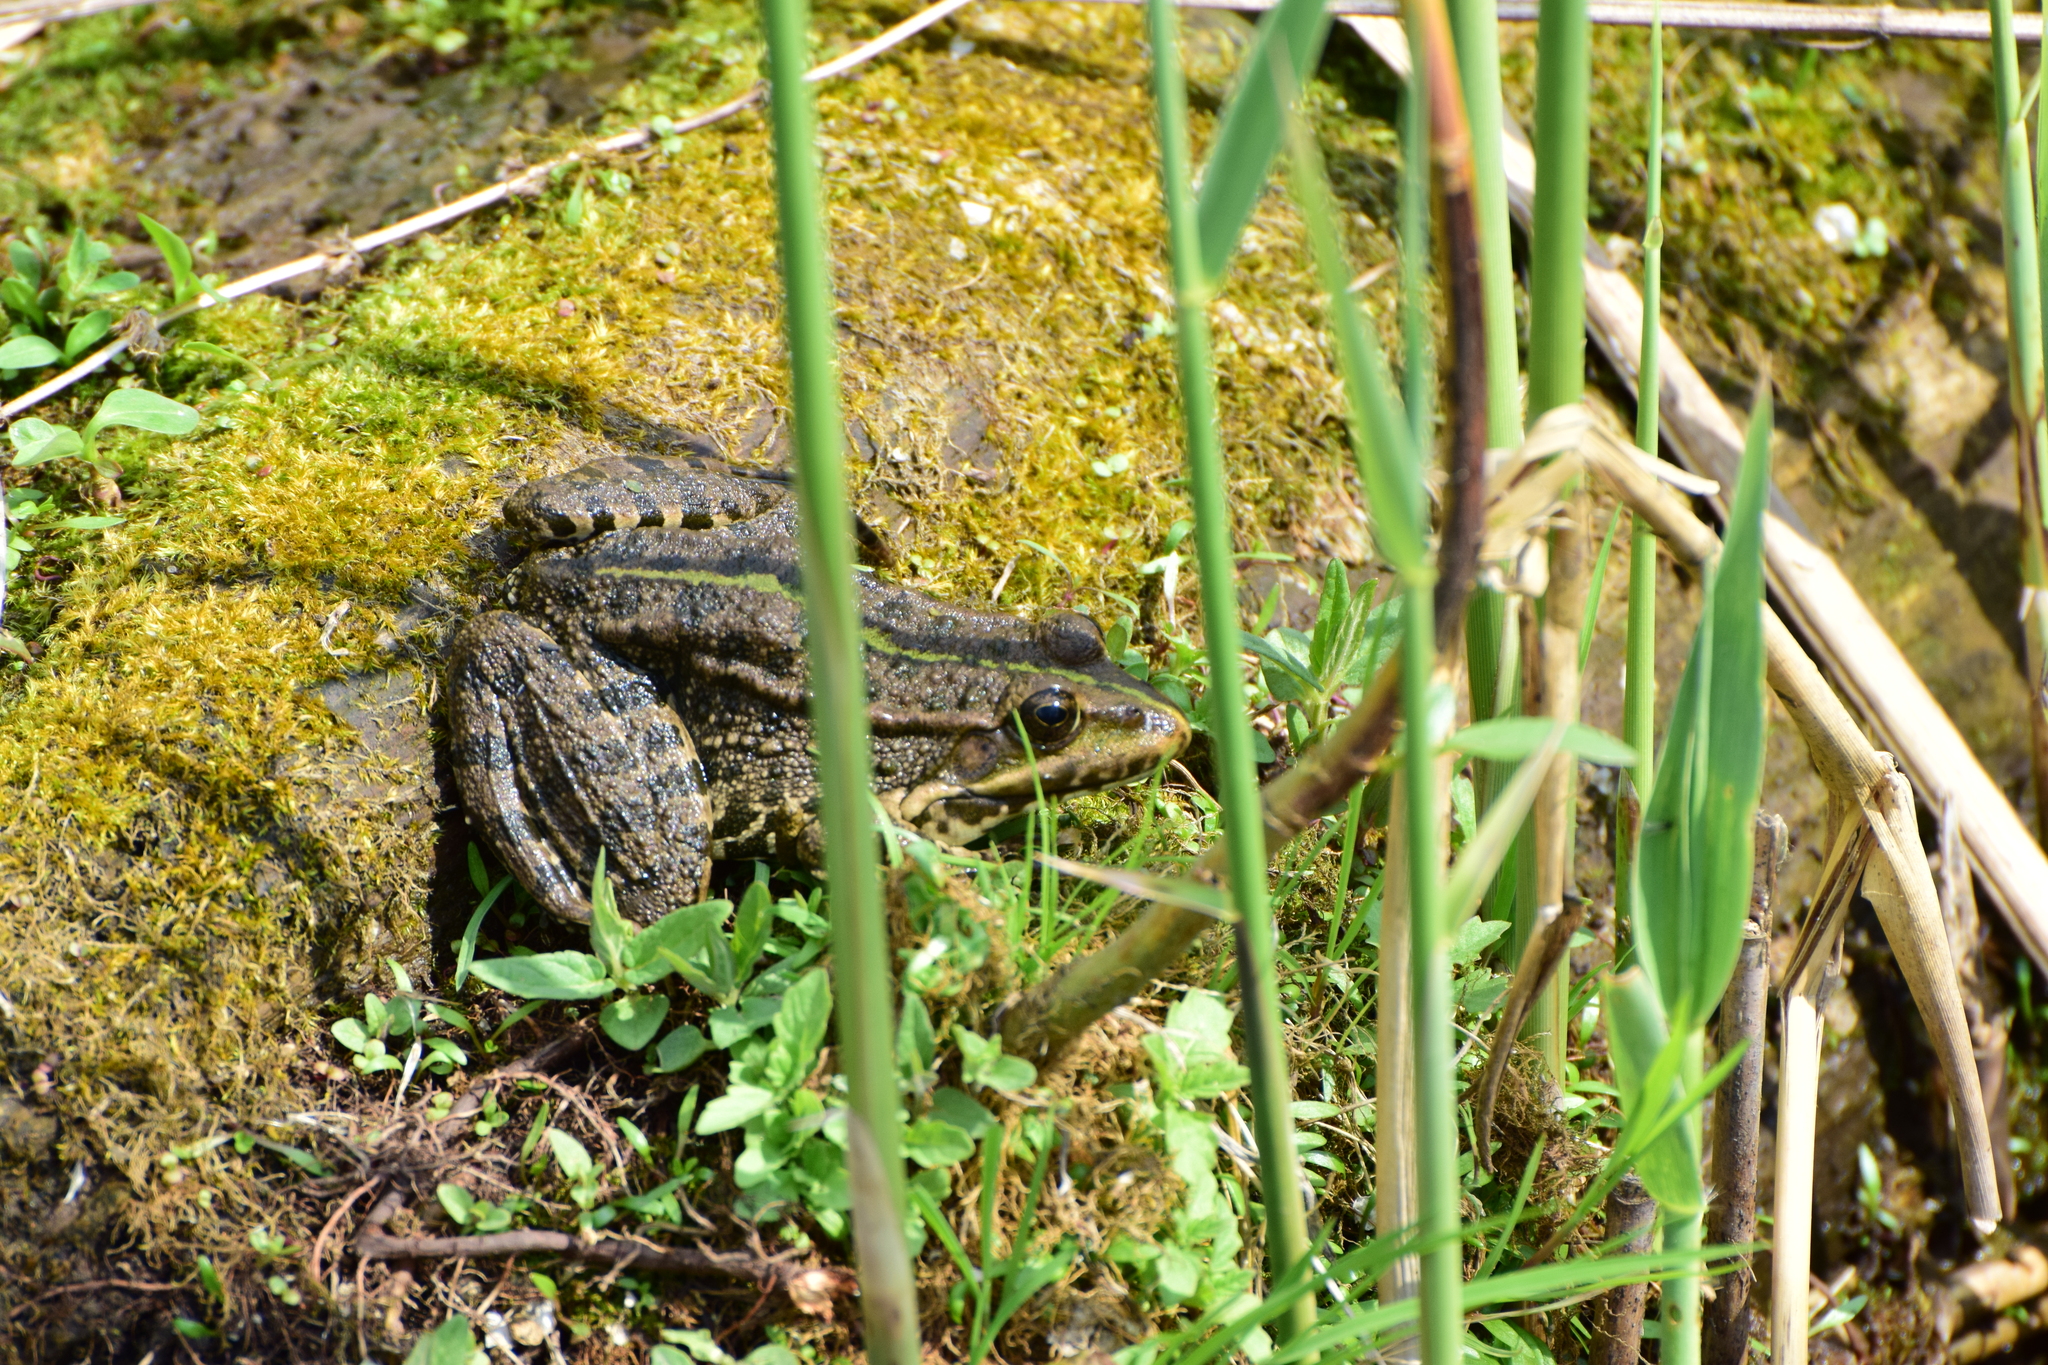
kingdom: Animalia
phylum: Chordata
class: Amphibia
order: Anura
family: Ranidae
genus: Pelophylax
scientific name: Pelophylax ridibundus
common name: Marsh frog
